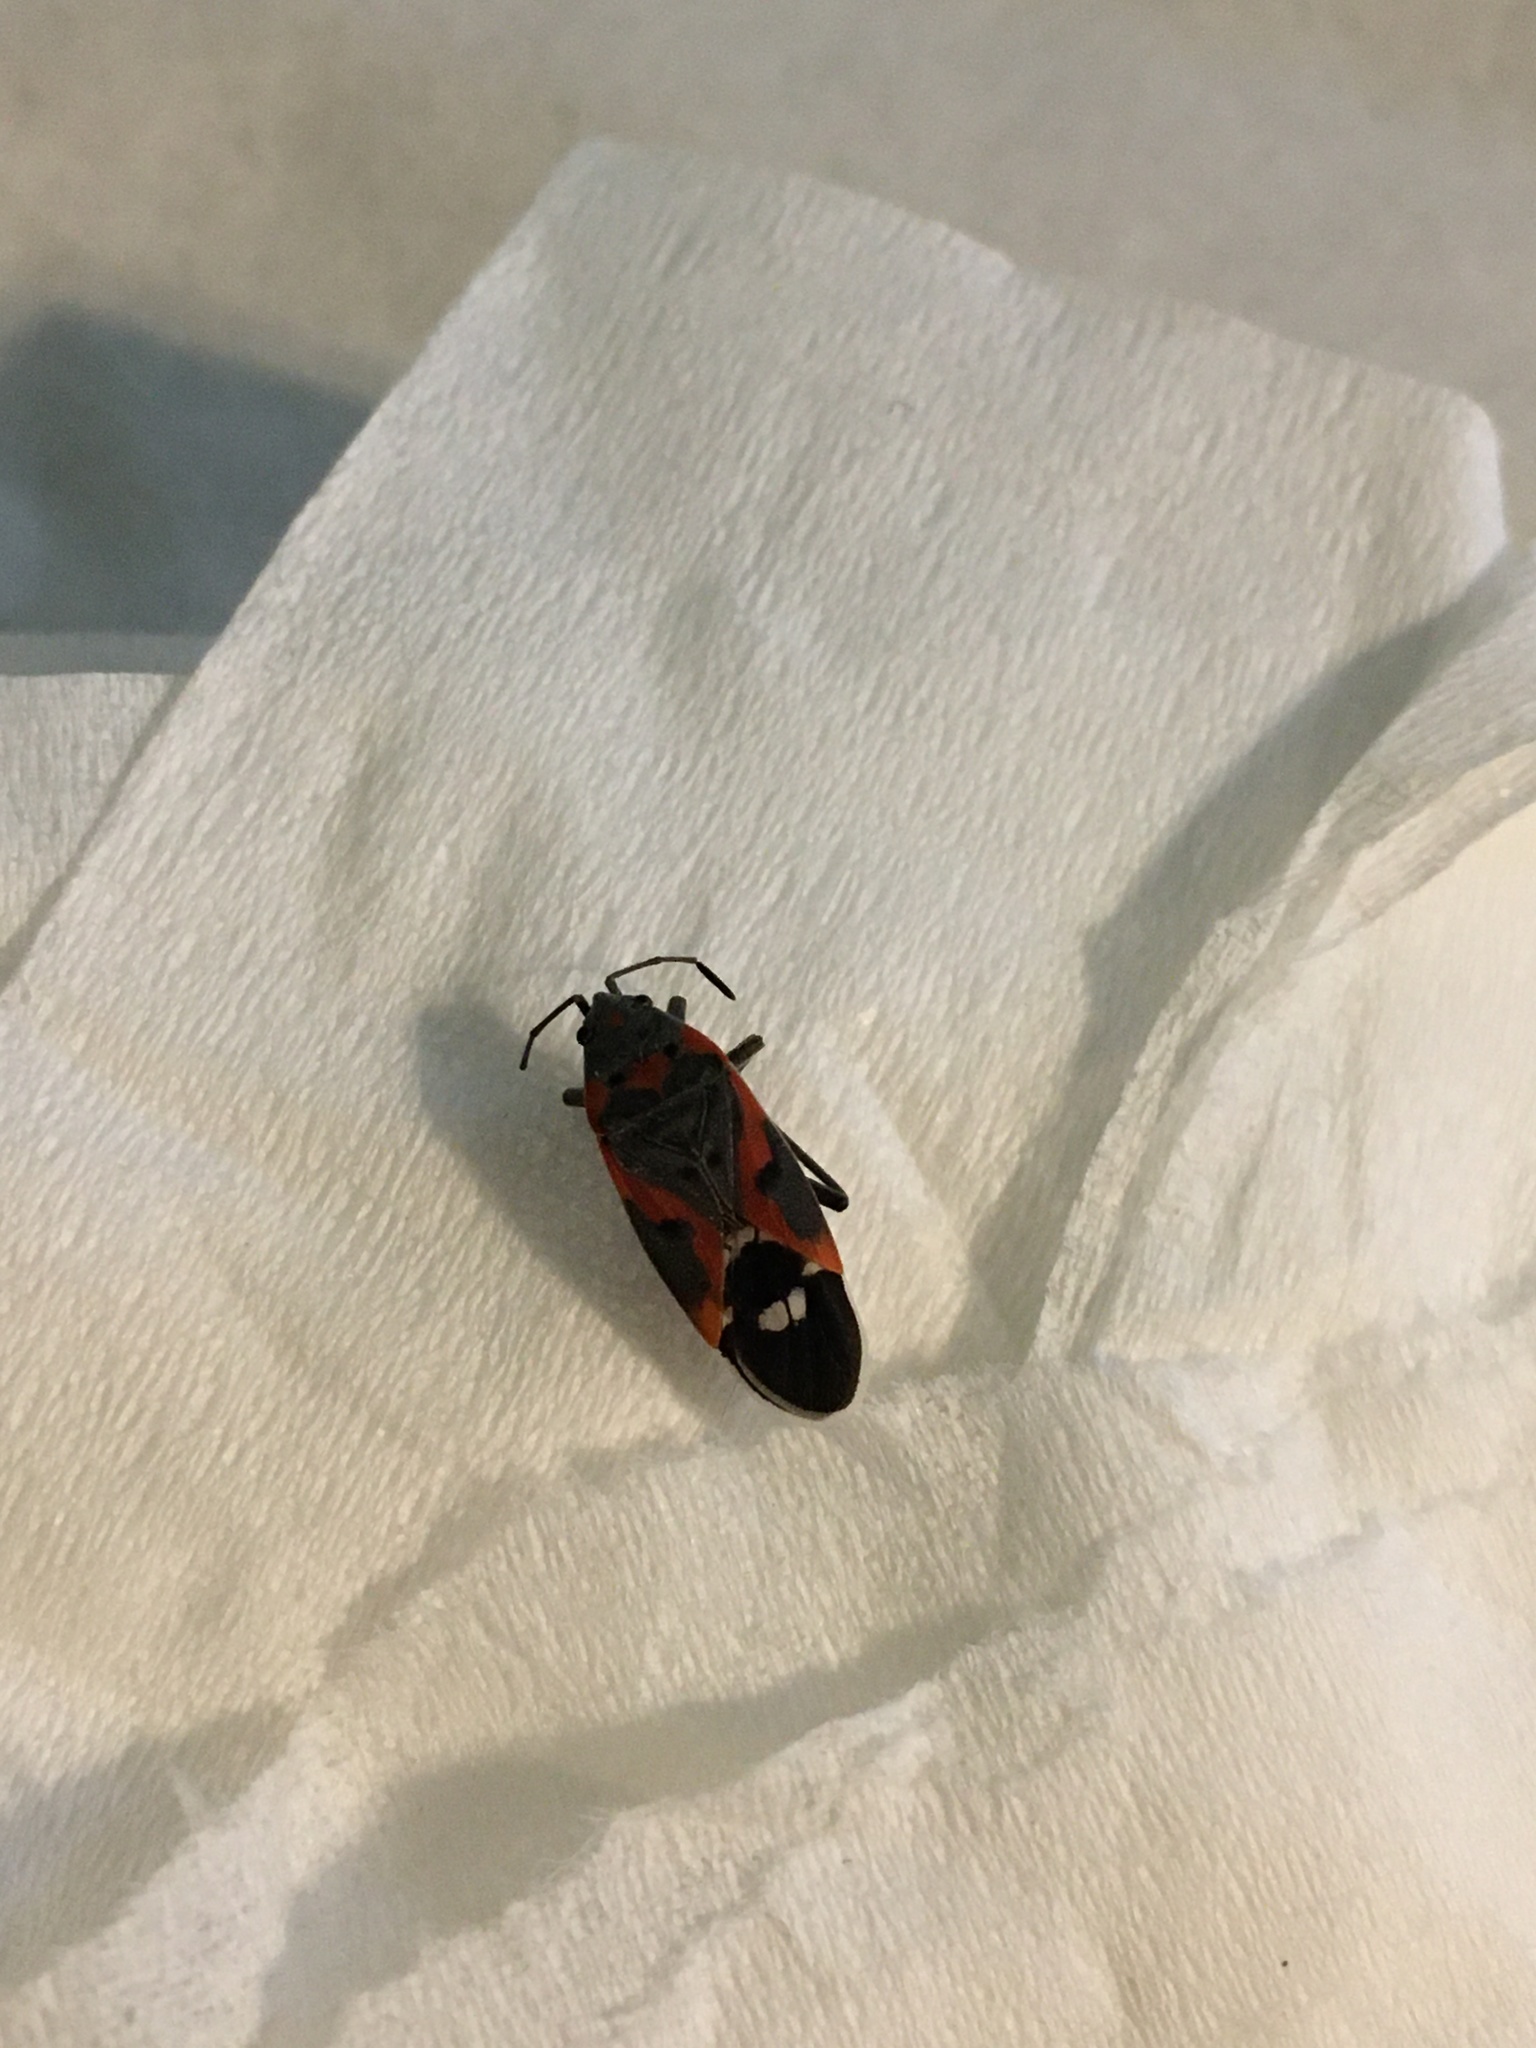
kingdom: Animalia
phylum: Arthropoda
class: Insecta
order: Hemiptera
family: Lygaeidae
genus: Lygaeus
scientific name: Lygaeus kalmii
